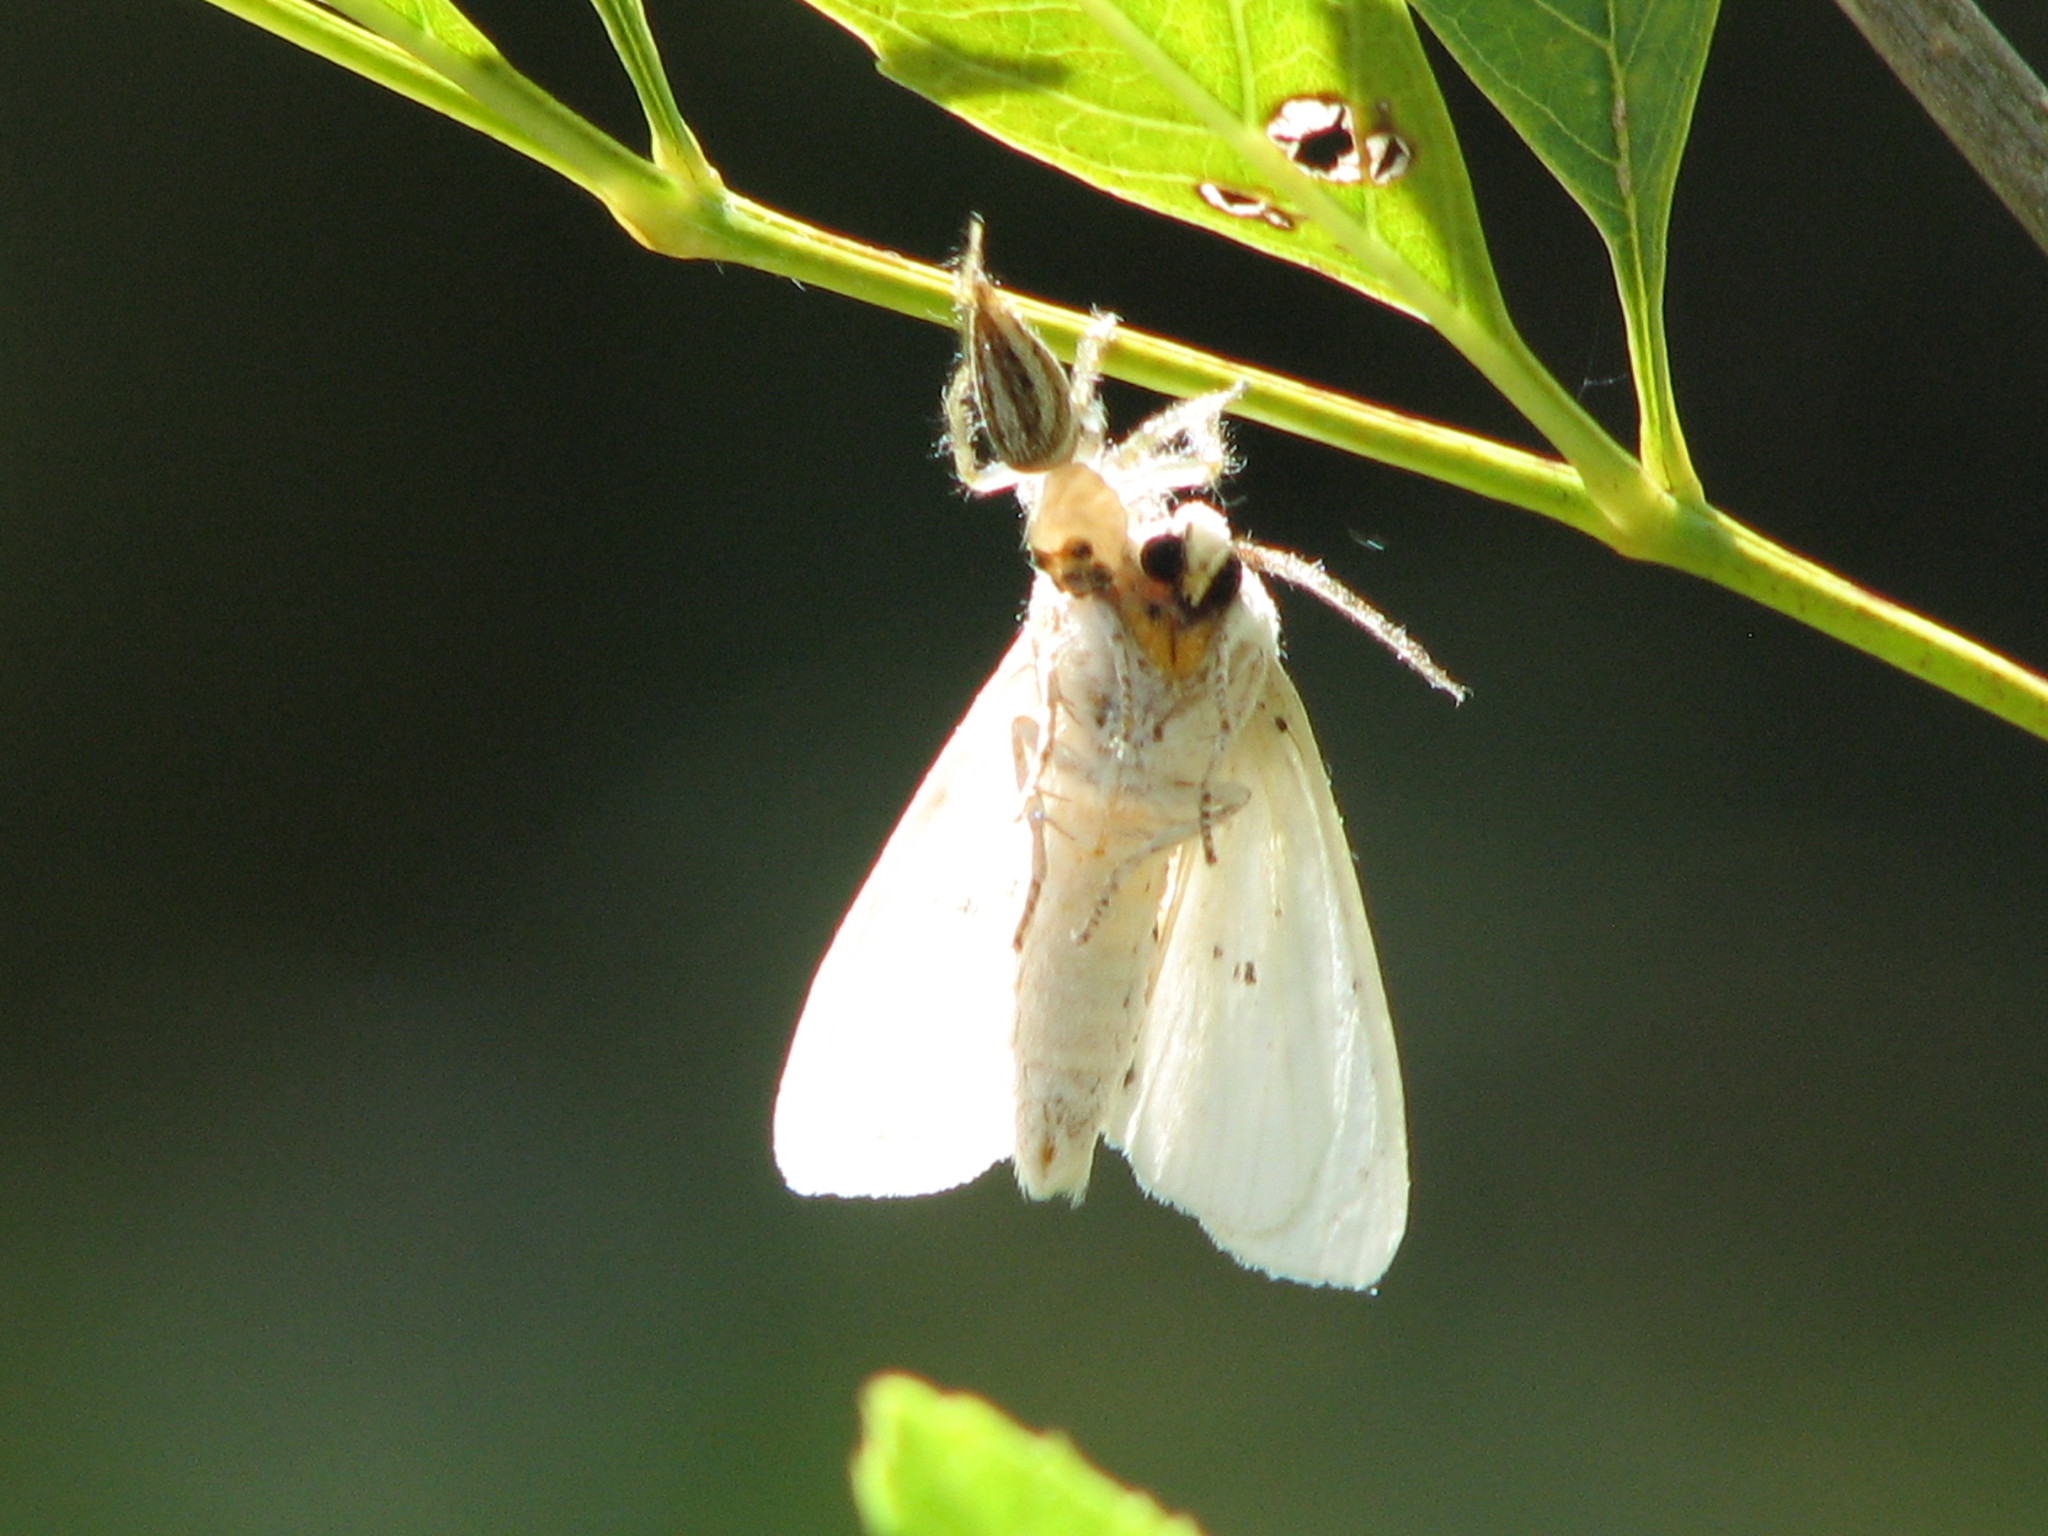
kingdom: Animalia
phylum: Arthropoda
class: Insecta
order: Lepidoptera
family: Erebidae
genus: Hyphantria
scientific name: Hyphantria cunea
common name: American white moth
